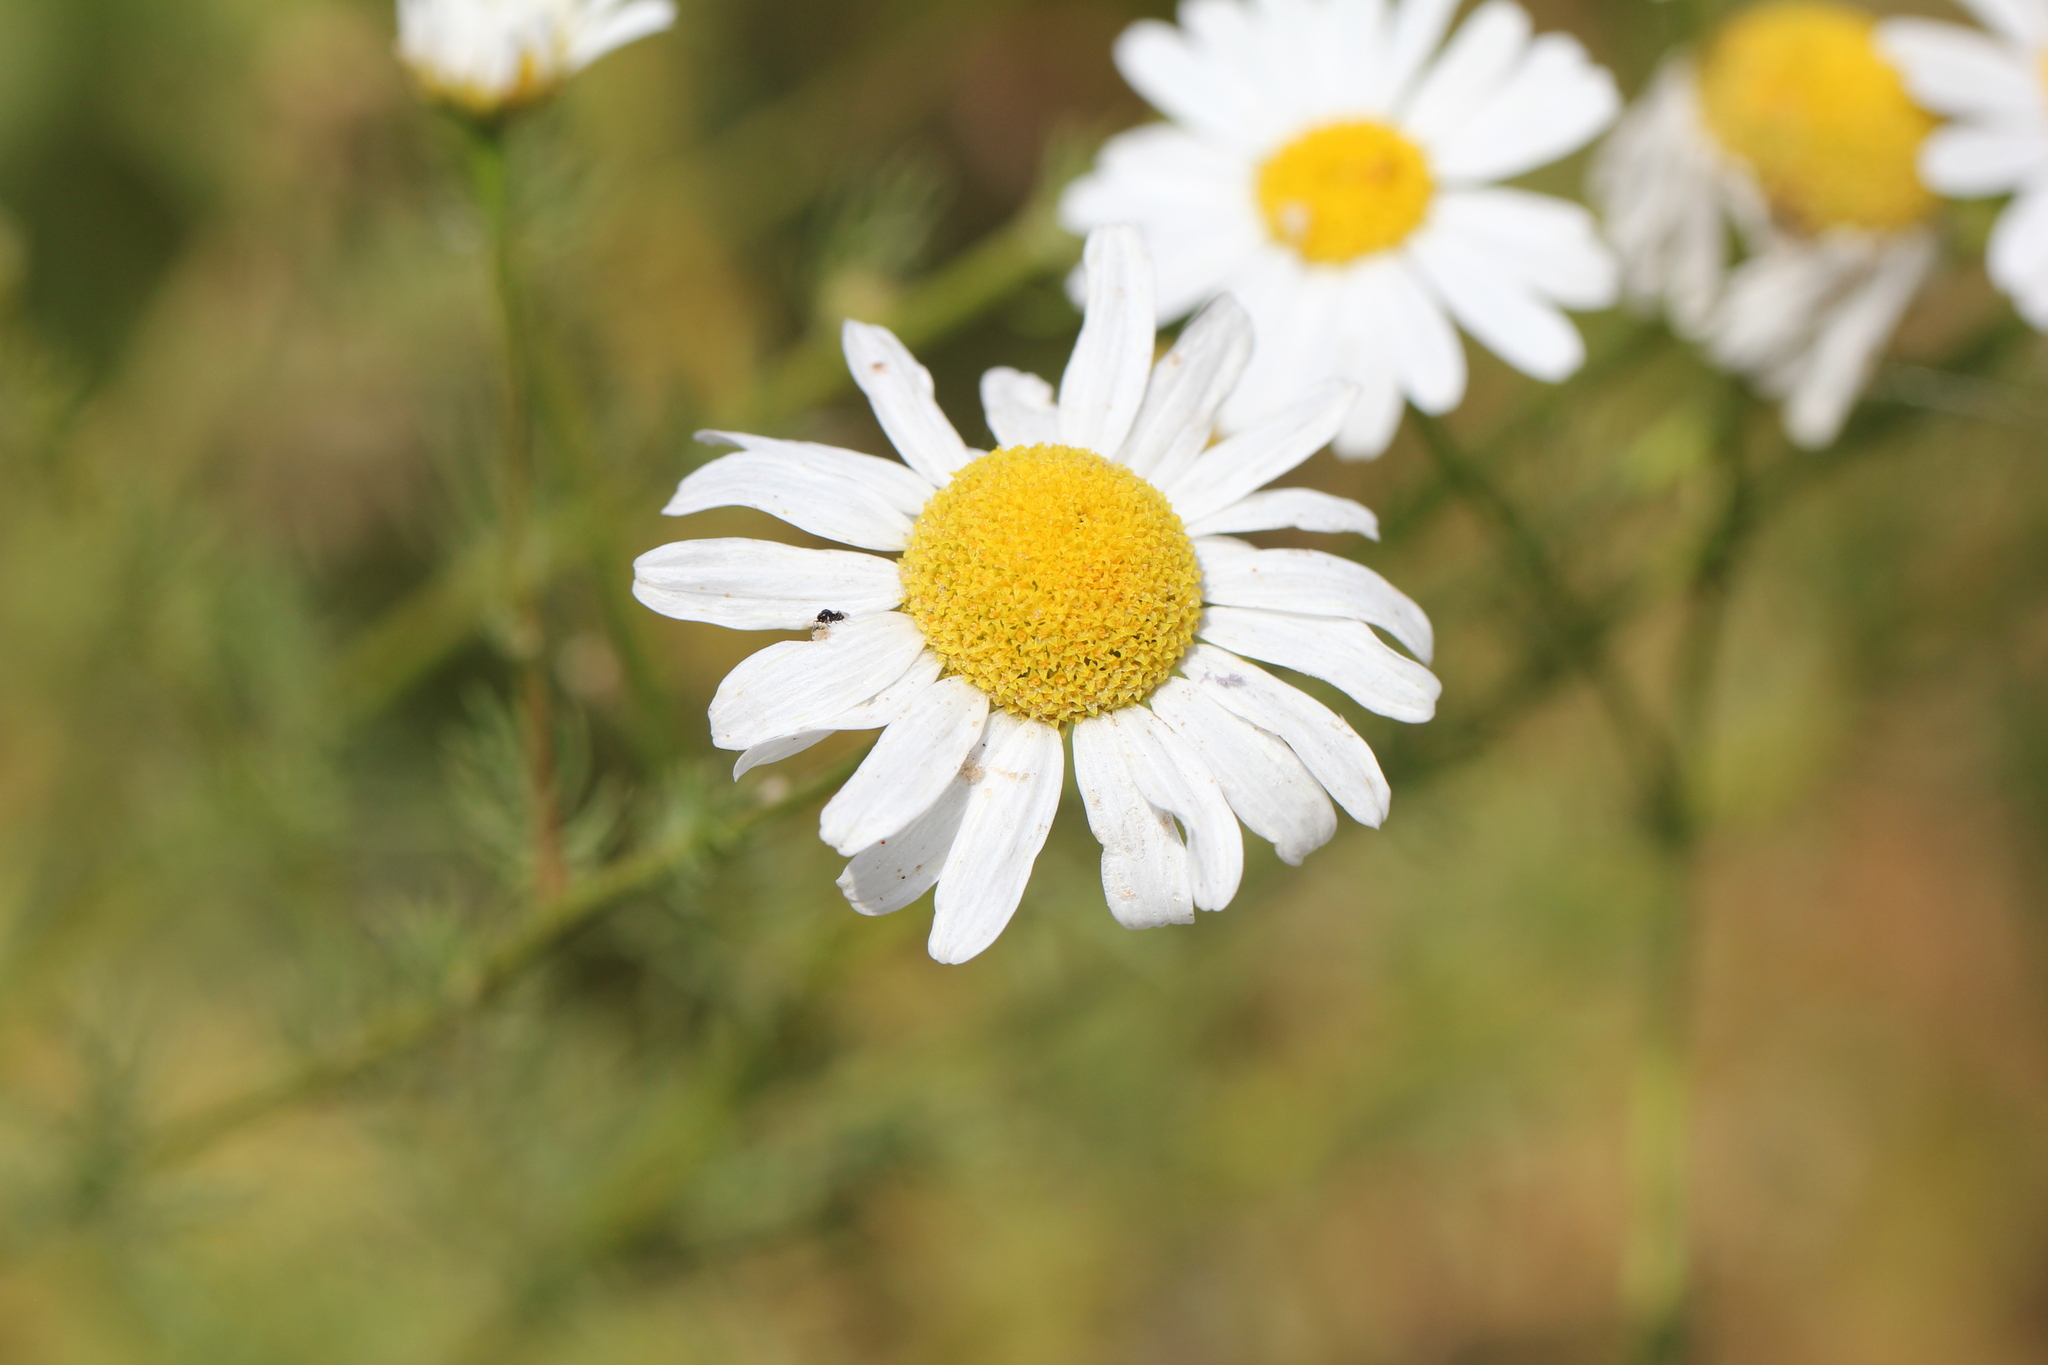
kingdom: Plantae
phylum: Tracheophyta
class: Magnoliopsida
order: Asterales
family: Asteraceae
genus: Tripleurospermum
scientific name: Tripleurospermum inodorum
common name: Scentless mayweed
